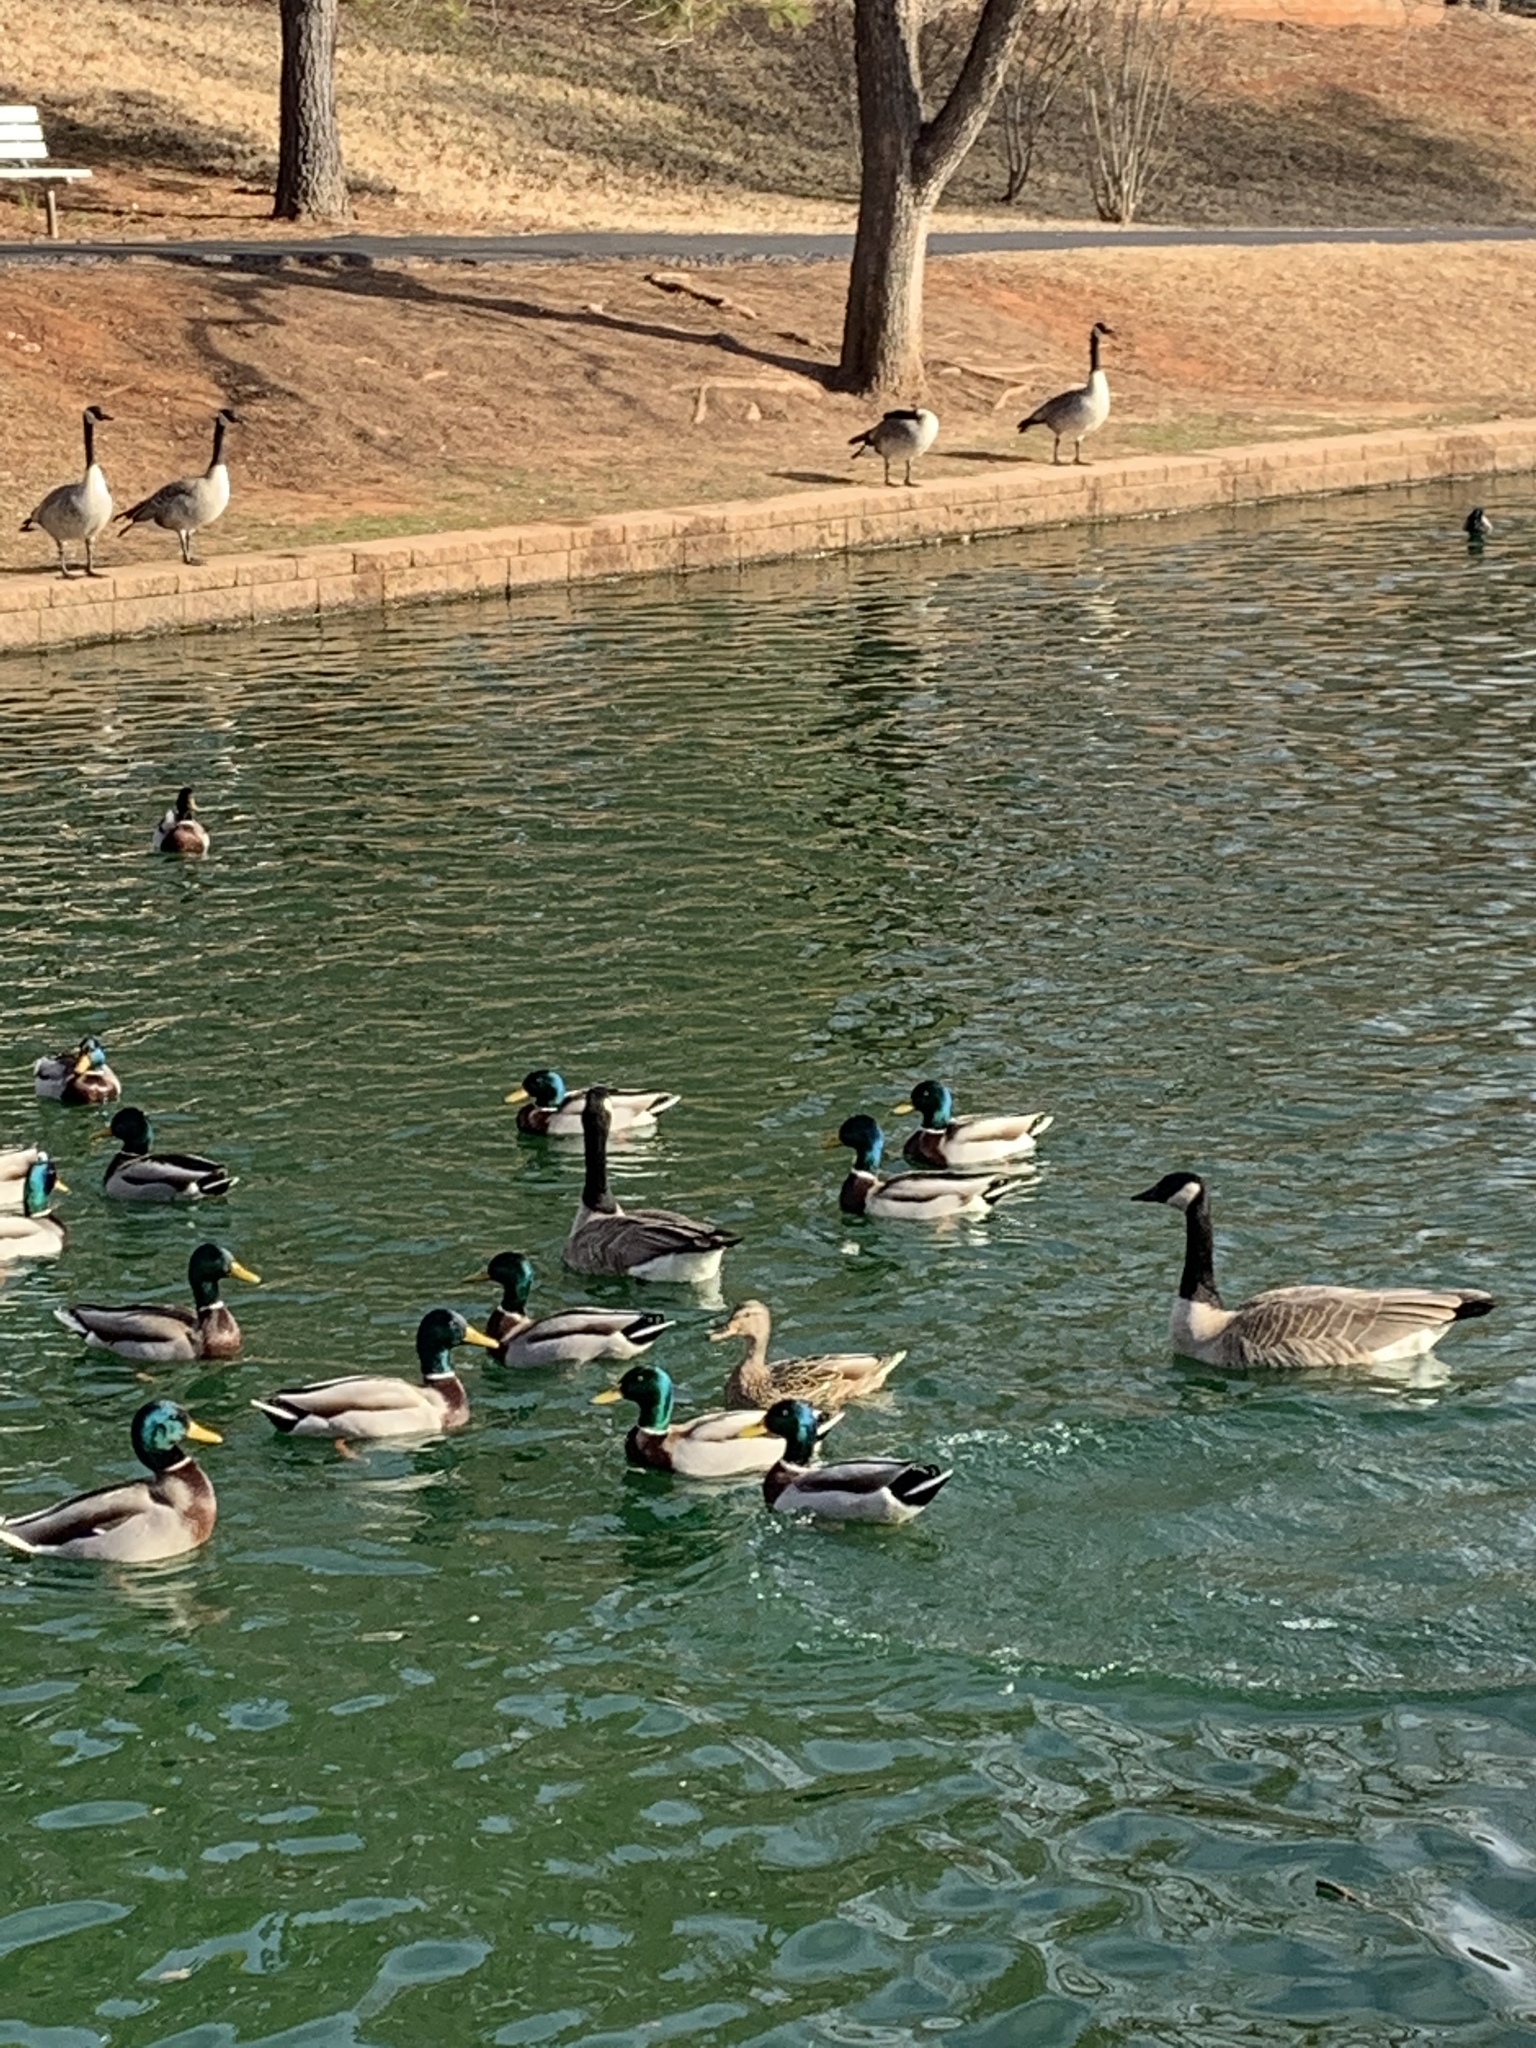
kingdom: Animalia
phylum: Chordata
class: Aves
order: Anseriformes
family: Anatidae
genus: Branta
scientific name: Branta canadensis
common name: Canada goose
